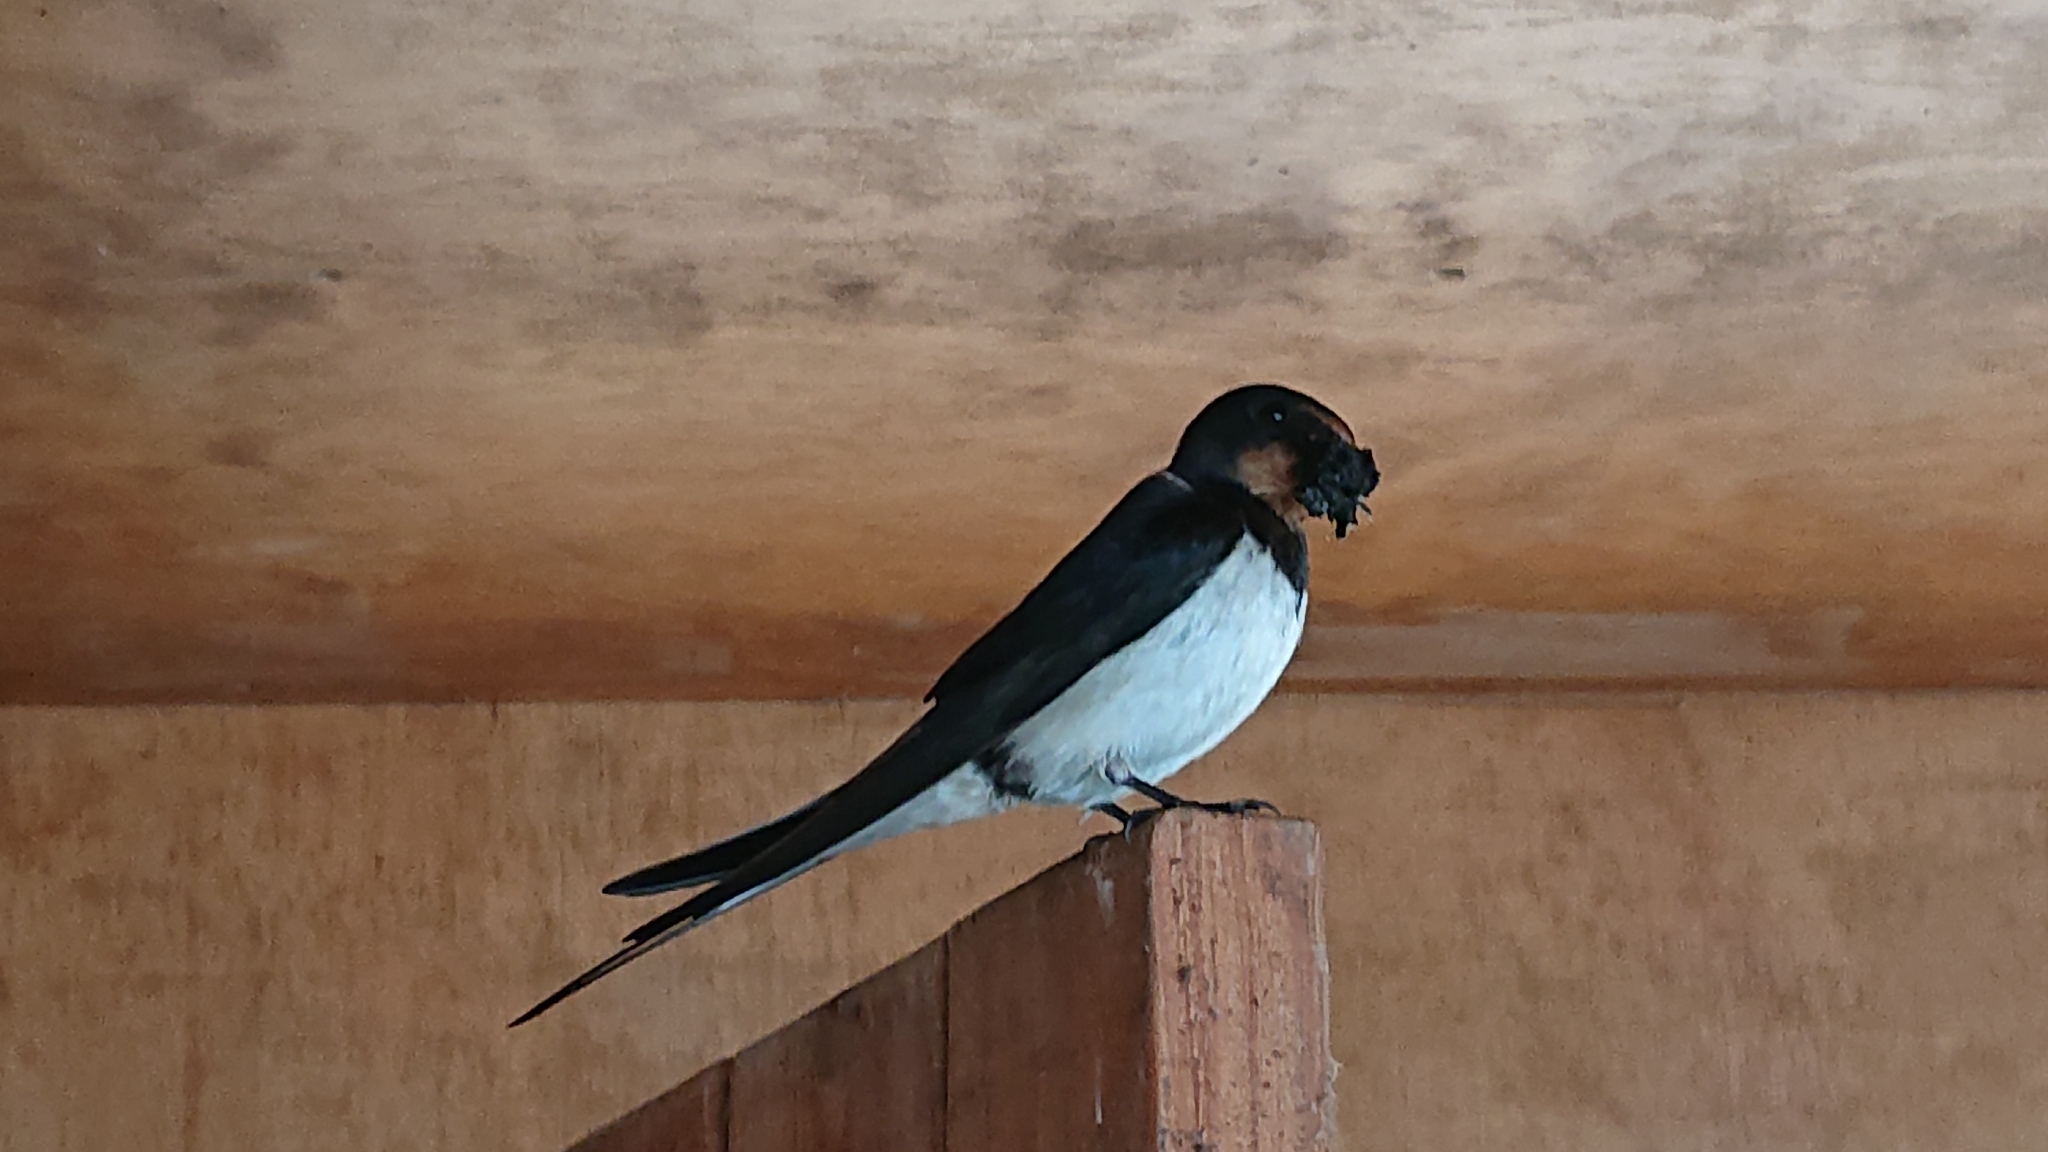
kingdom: Animalia
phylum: Chordata
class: Aves
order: Passeriformes
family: Hirundinidae
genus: Hirundo
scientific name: Hirundo rustica
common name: Barn swallow
